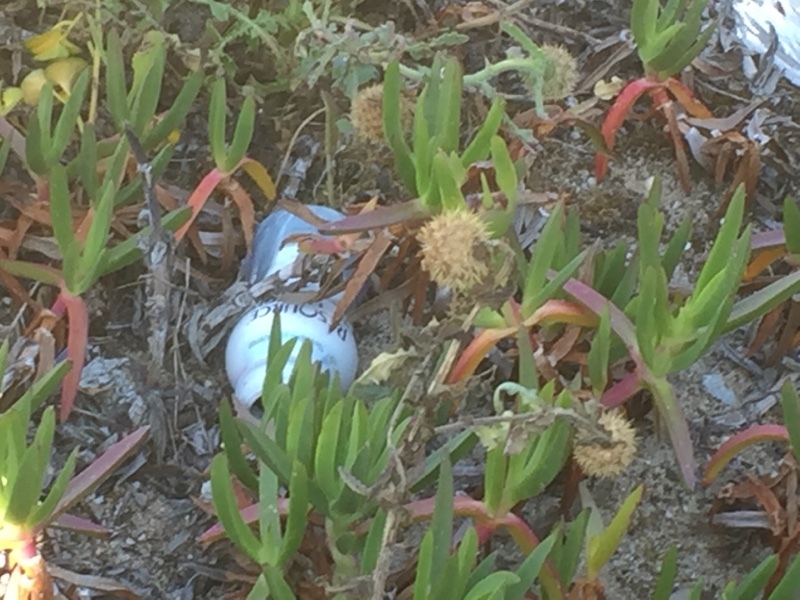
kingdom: Plantae
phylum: Tracheophyta
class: Magnoliopsida
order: Caryophyllales
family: Aizoaceae
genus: Carpobrotus
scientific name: Carpobrotus edulis
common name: Hottentot-fig
